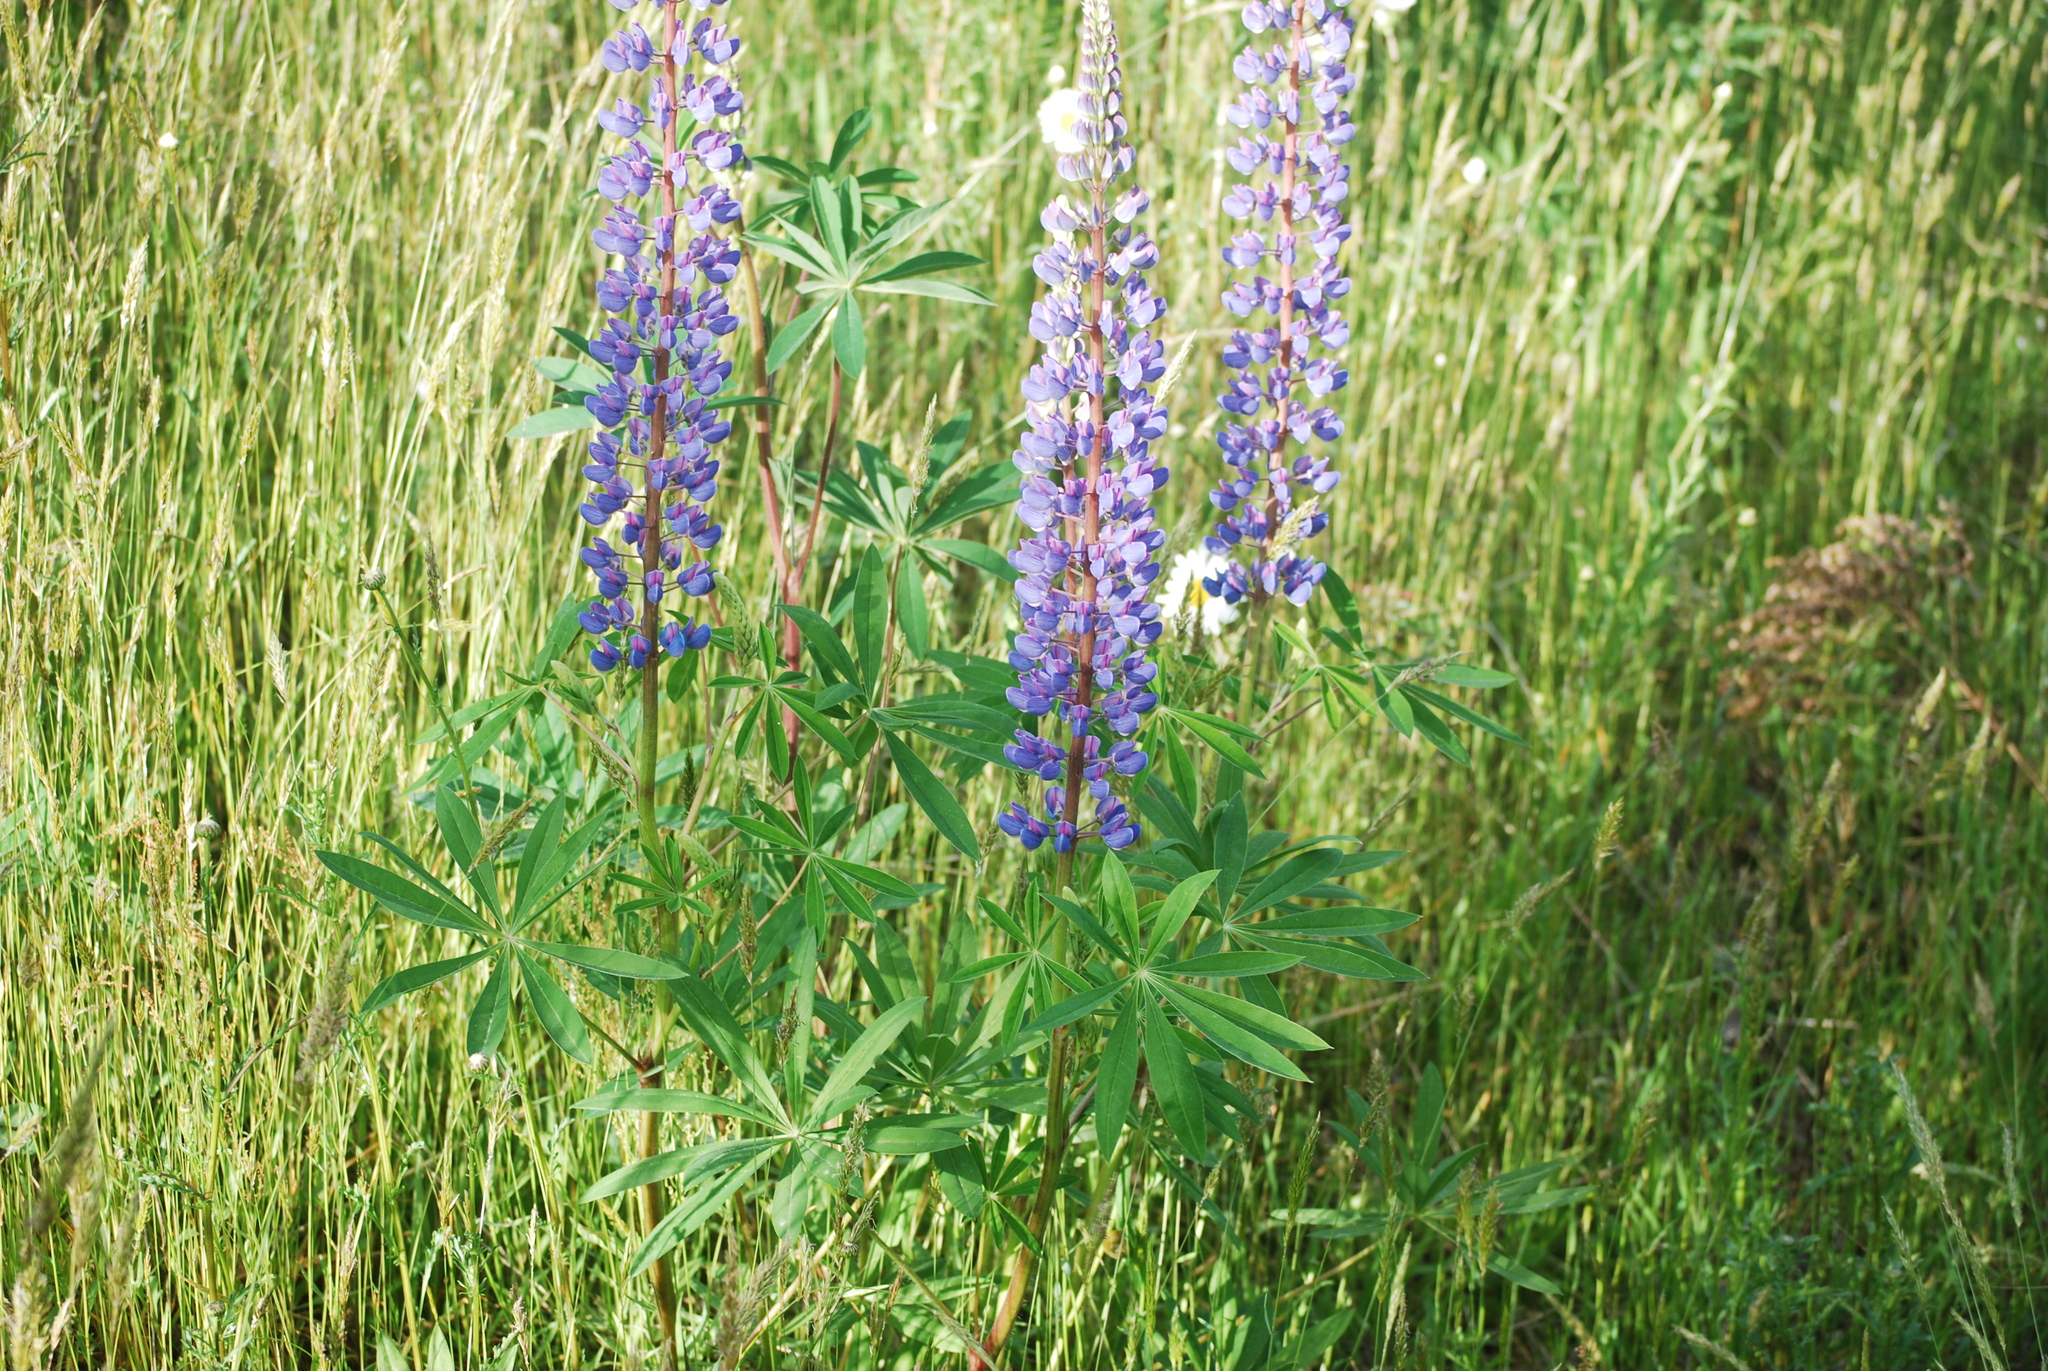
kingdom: Plantae
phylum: Tracheophyta
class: Magnoliopsida
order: Fabales
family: Fabaceae
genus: Lupinus
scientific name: Lupinus latifolius
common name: Broad-leaved lupine
